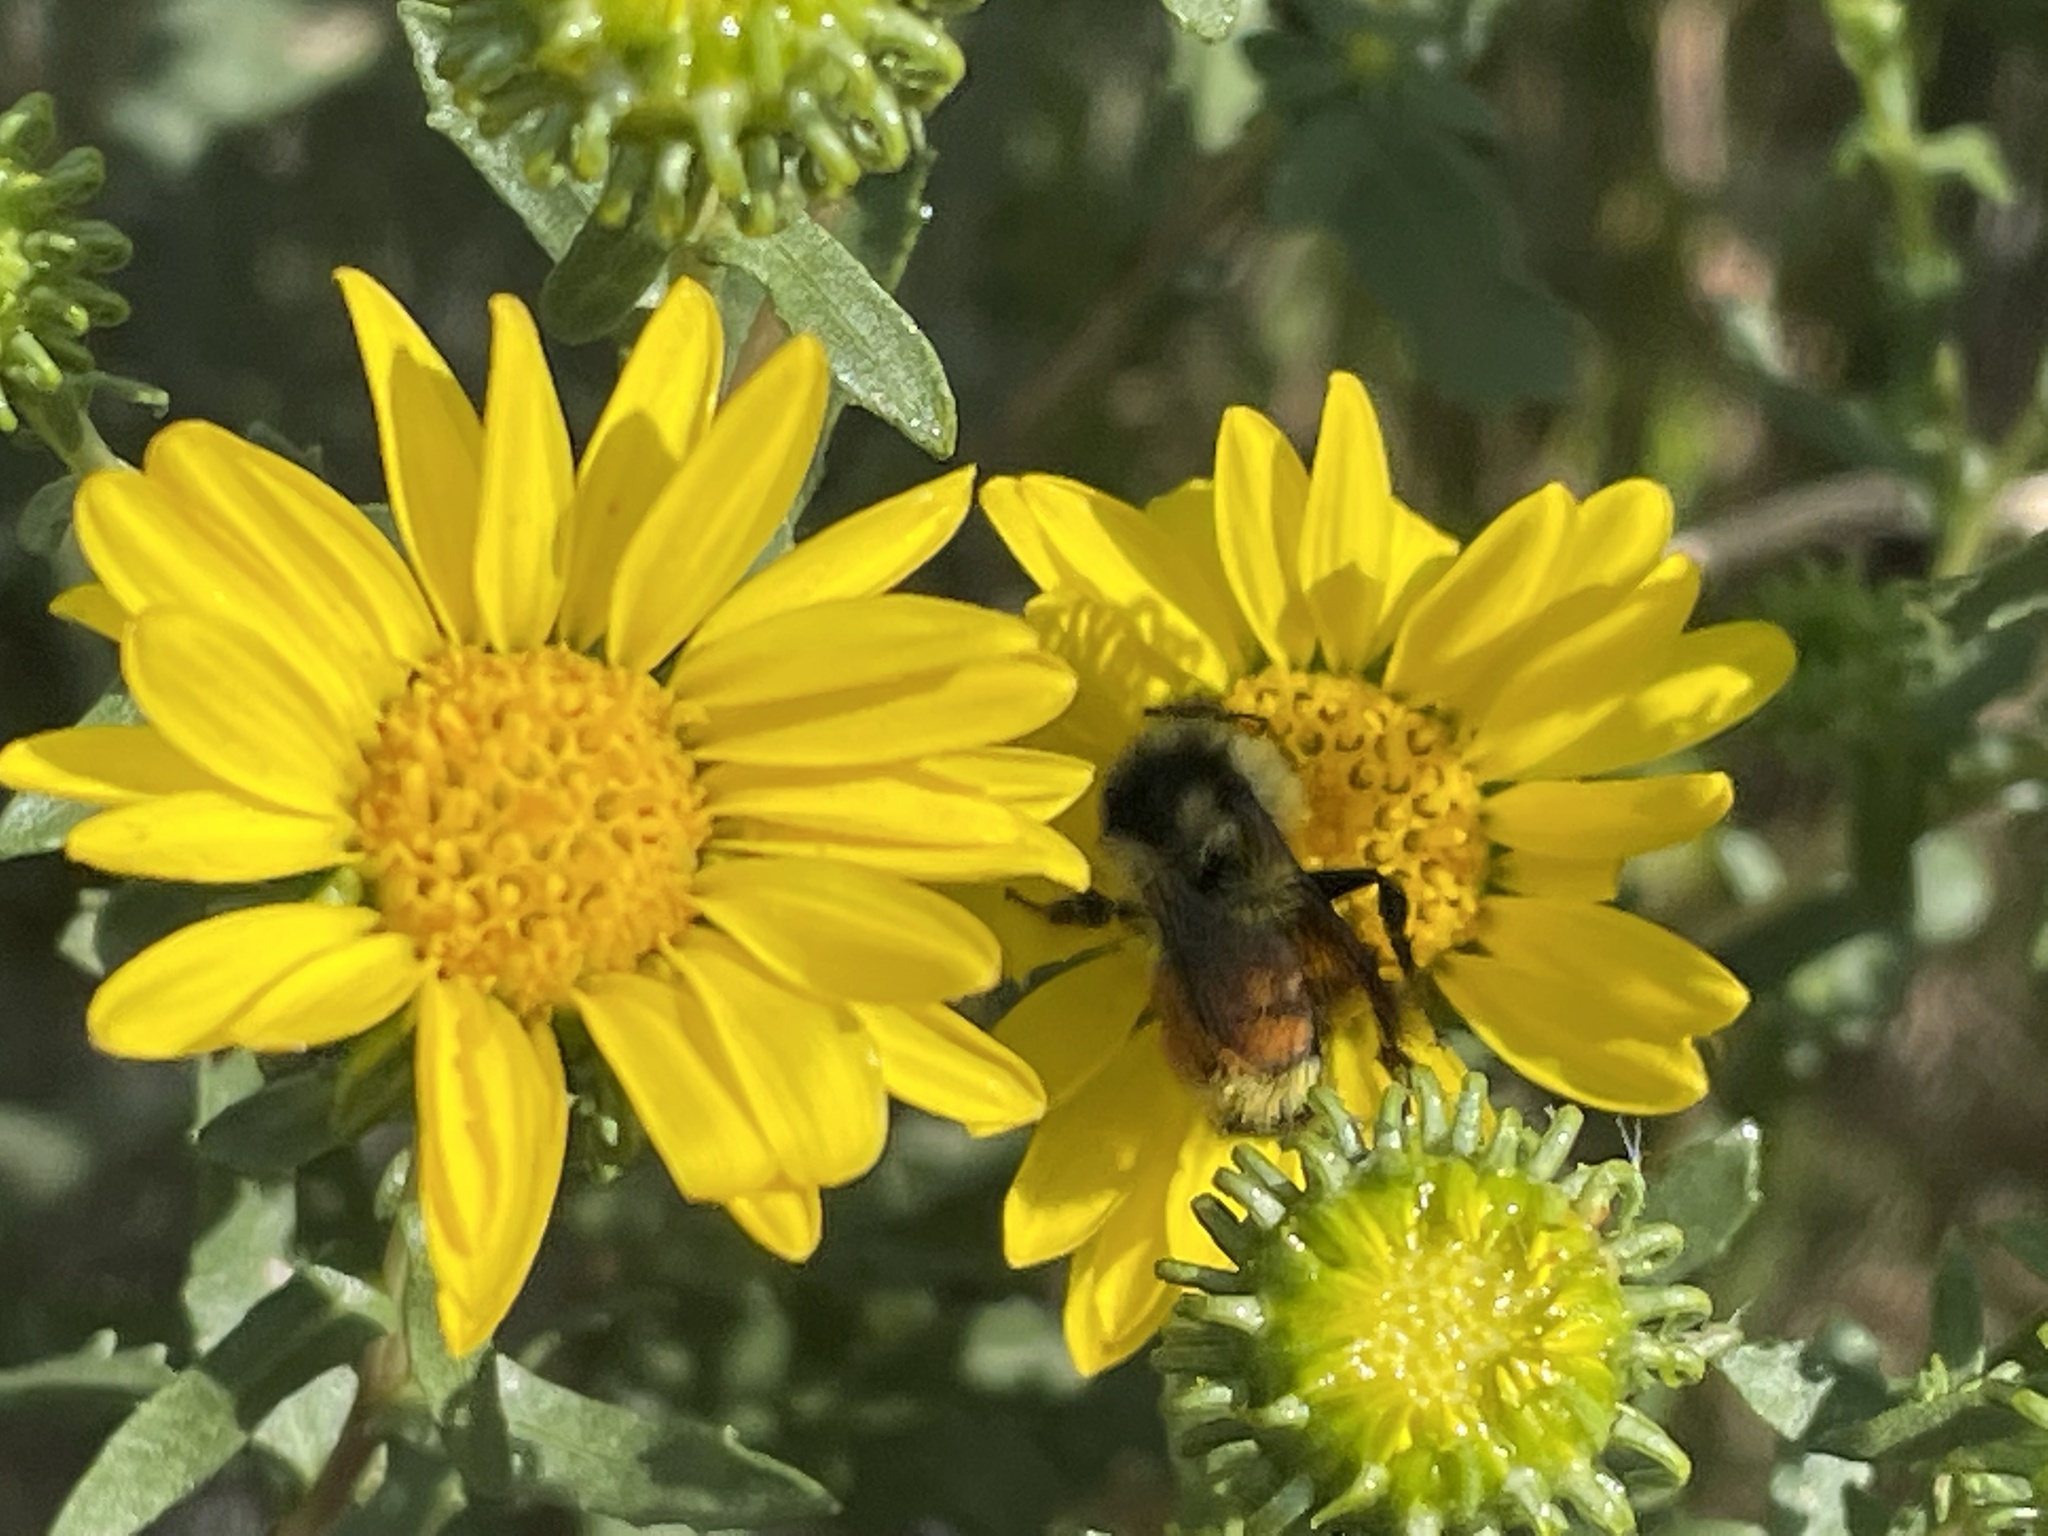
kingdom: Animalia
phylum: Arthropoda
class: Insecta
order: Hymenoptera
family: Apidae
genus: Bombus
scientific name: Bombus ternarius
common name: Tri-colored bumble bee
